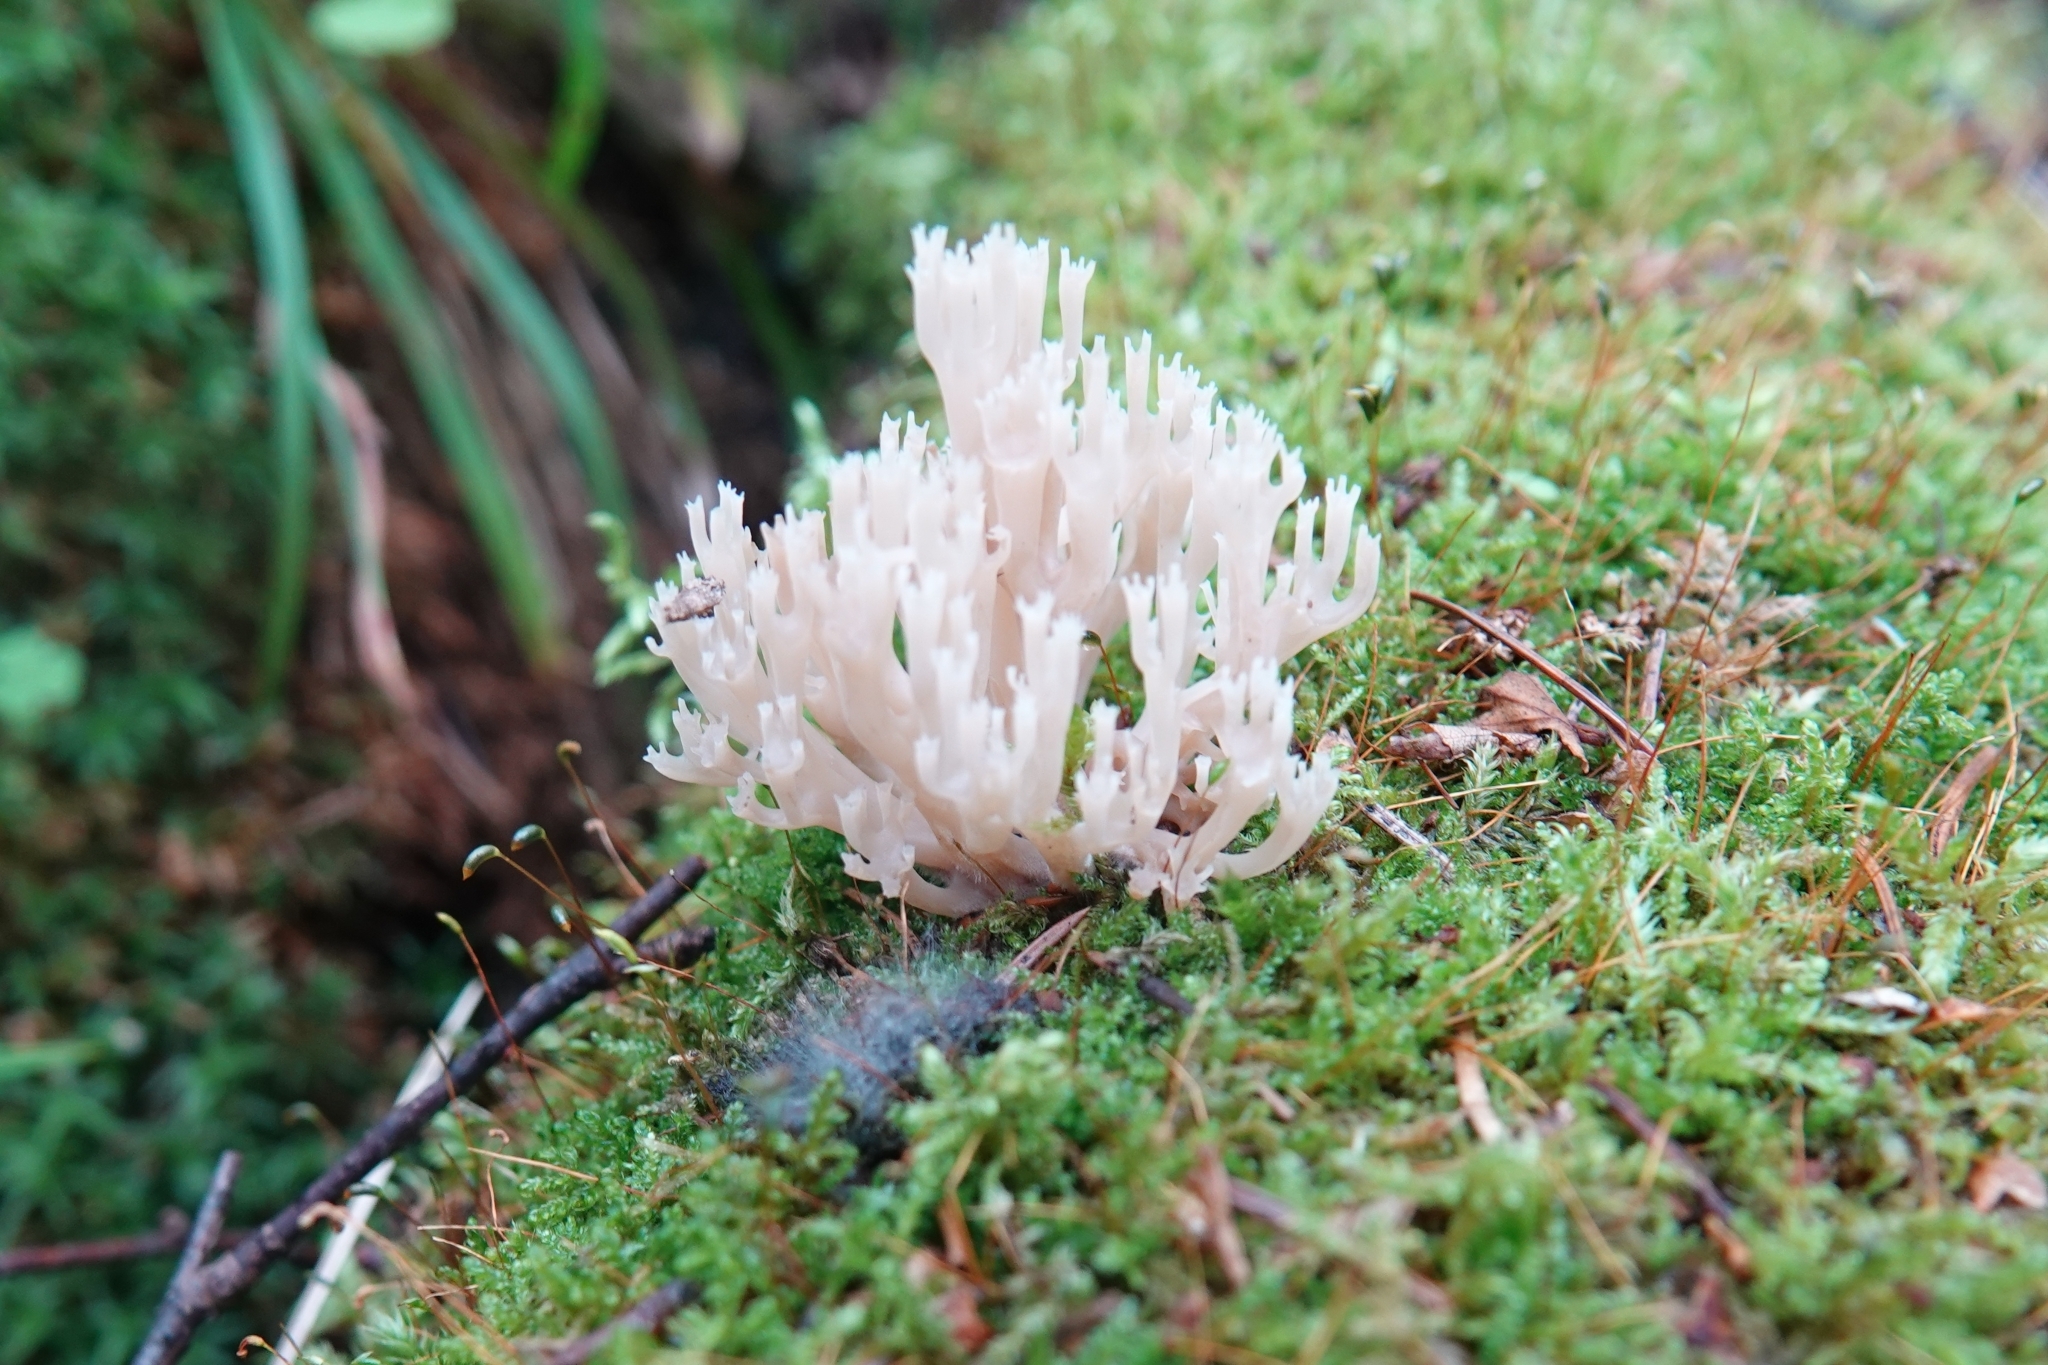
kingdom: Fungi
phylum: Basidiomycota
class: Agaricomycetes
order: Russulales
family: Auriscalpiaceae
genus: Artomyces
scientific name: Artomyces pyxidatus
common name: Crown-tipped coral fungus
